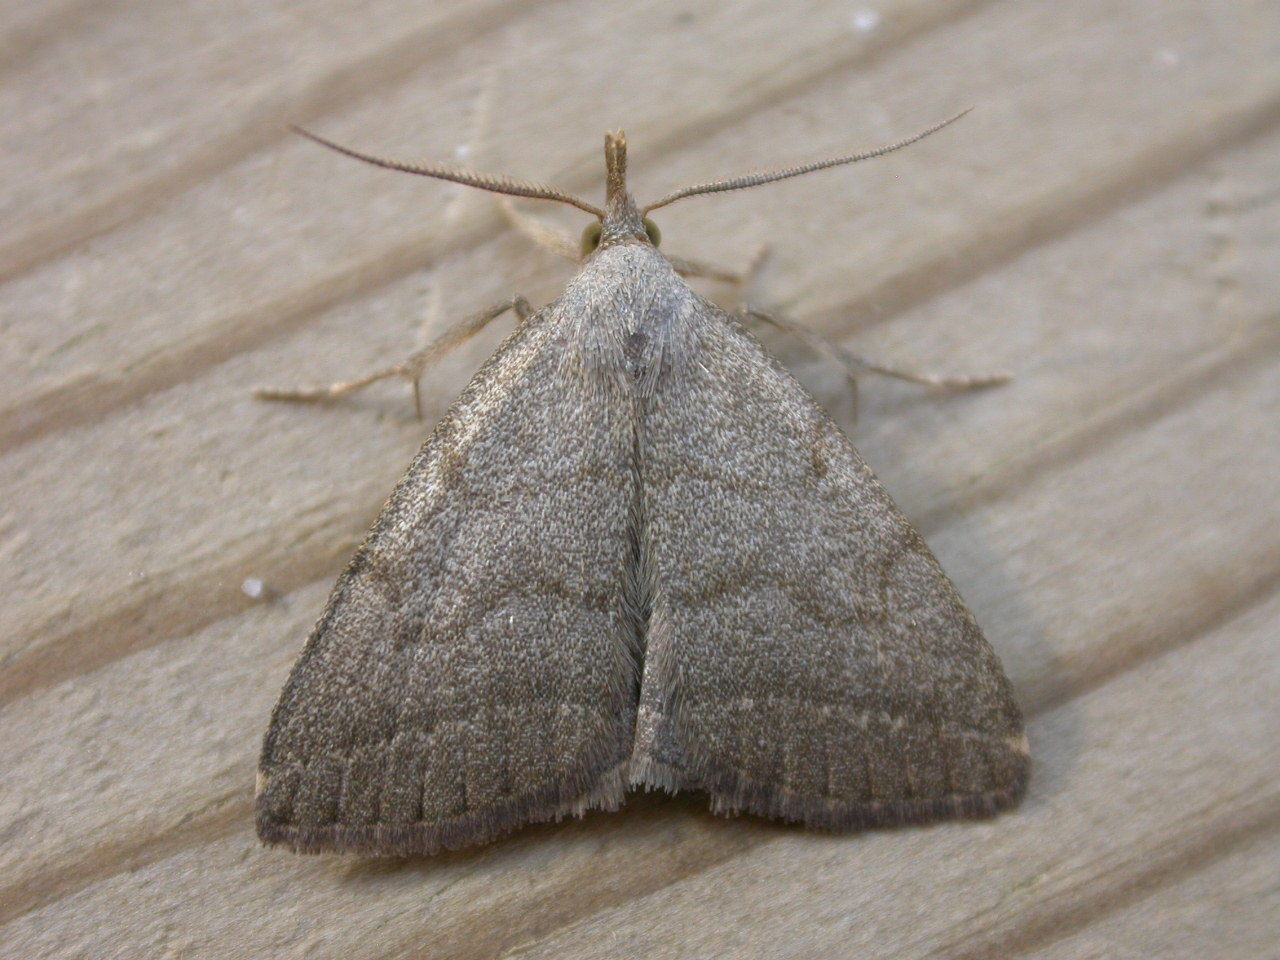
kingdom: Animalia
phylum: Arthropoda
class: Insecta
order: Lepidoptera
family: Erebidae
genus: Pechipogo
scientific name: Pechipogo strigilata
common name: Common fan-foot
